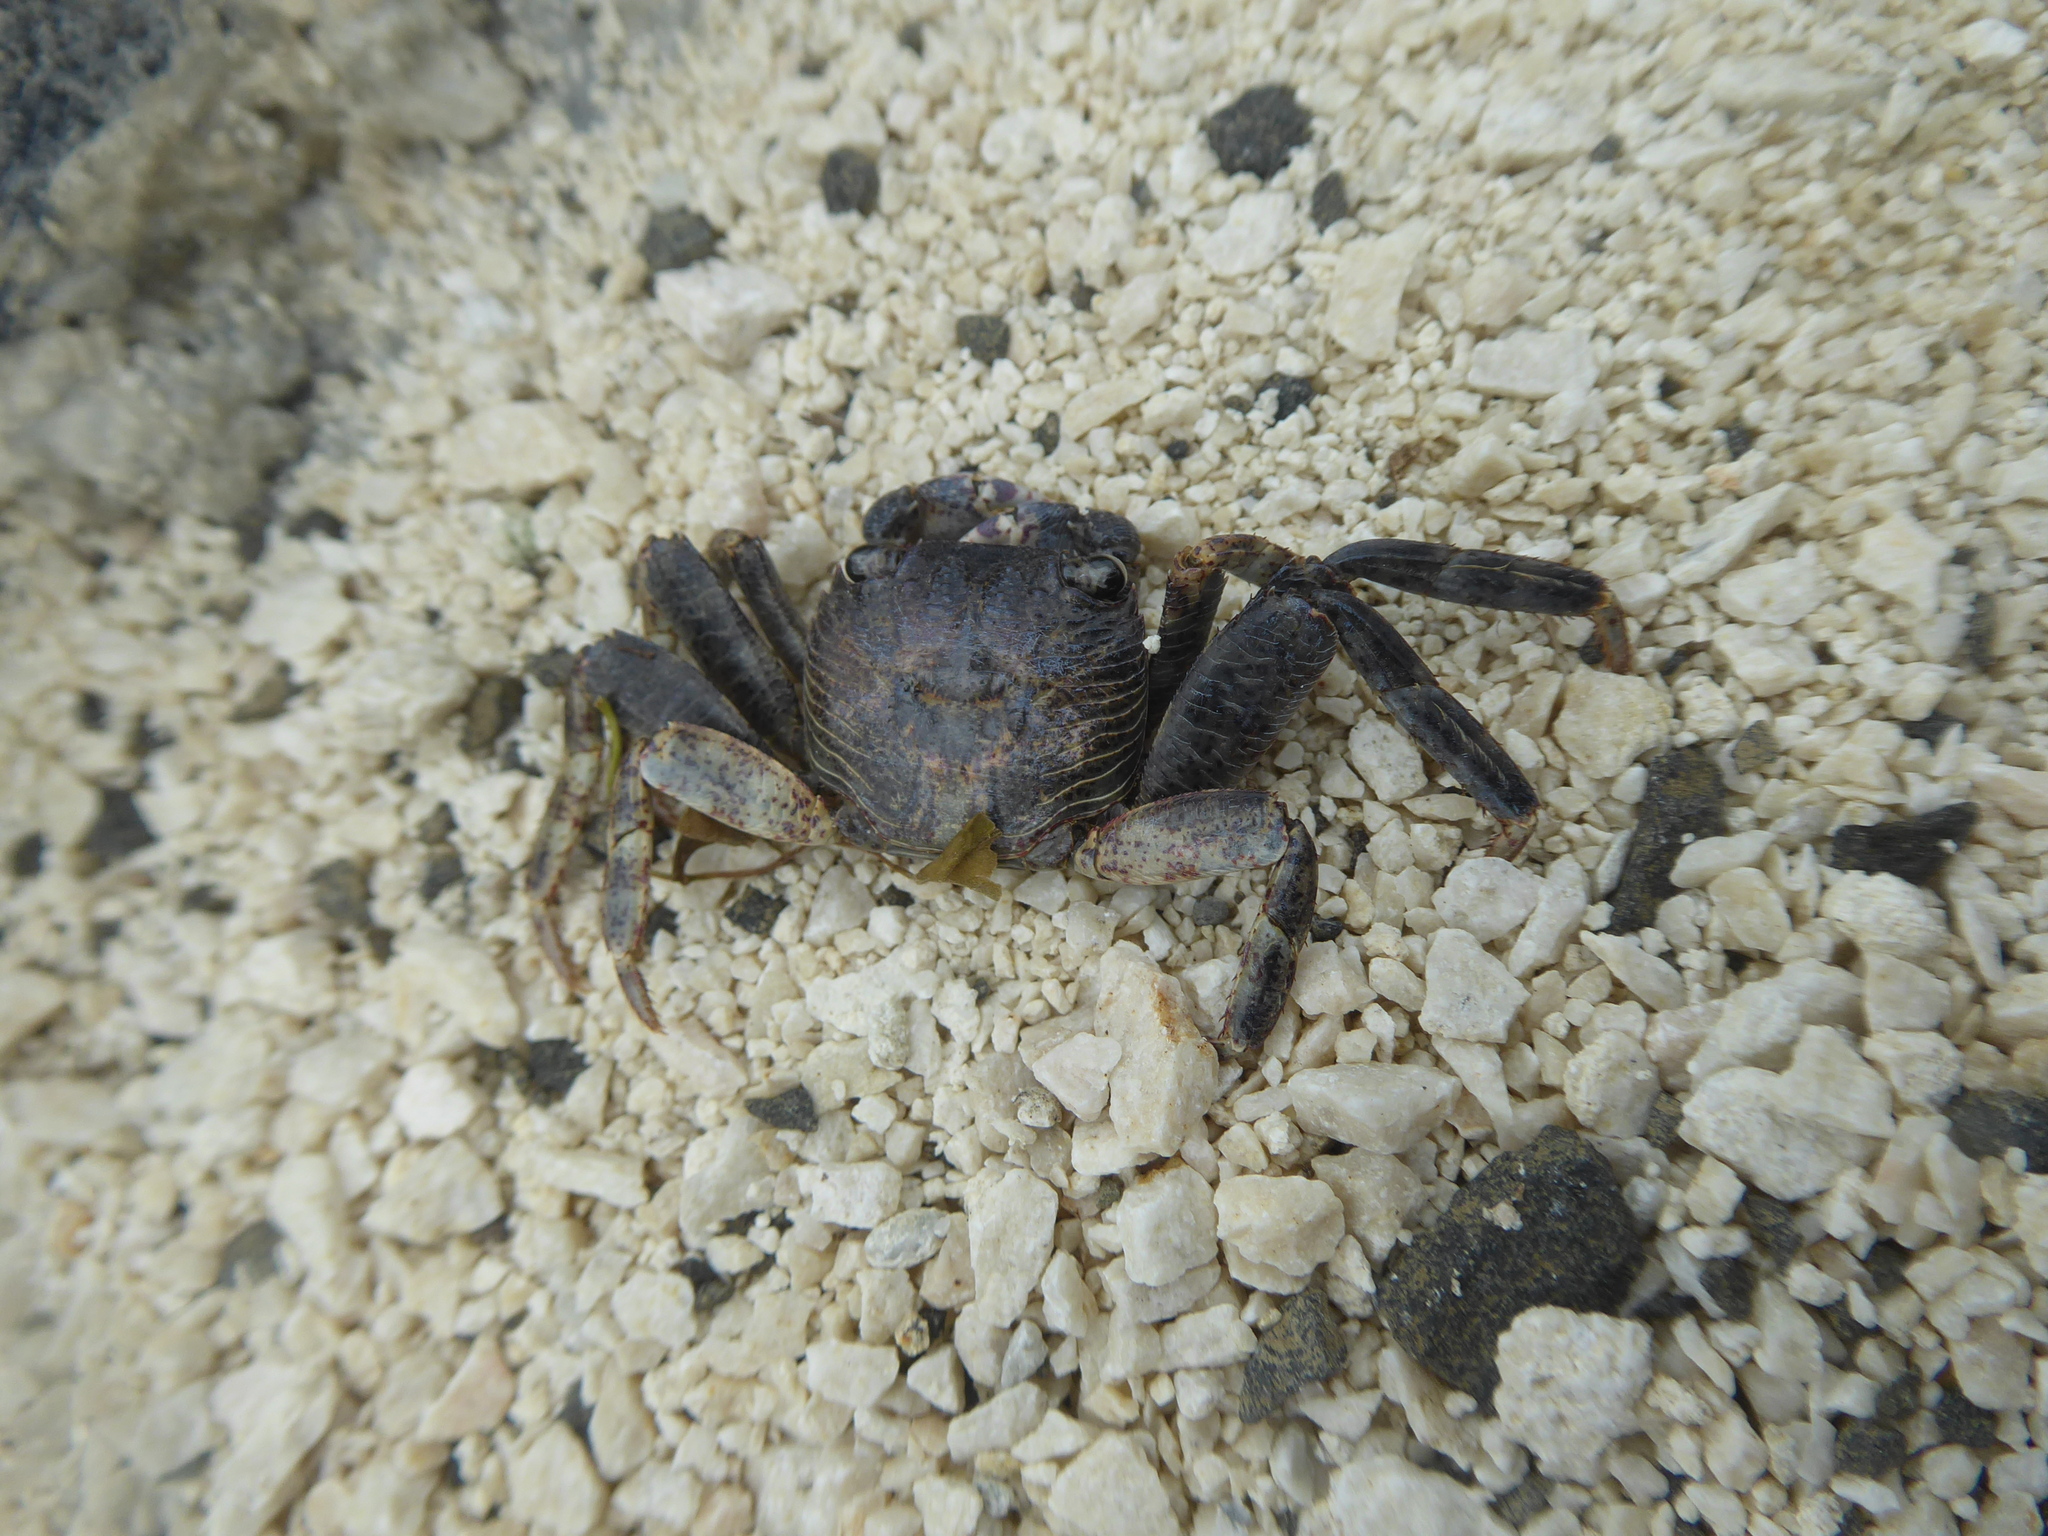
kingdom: Animalia
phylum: Arthropoda
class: Malacostraca
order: Decapoda
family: Grapsidae
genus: Leptograpsus
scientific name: Leptograpsus variegatus
